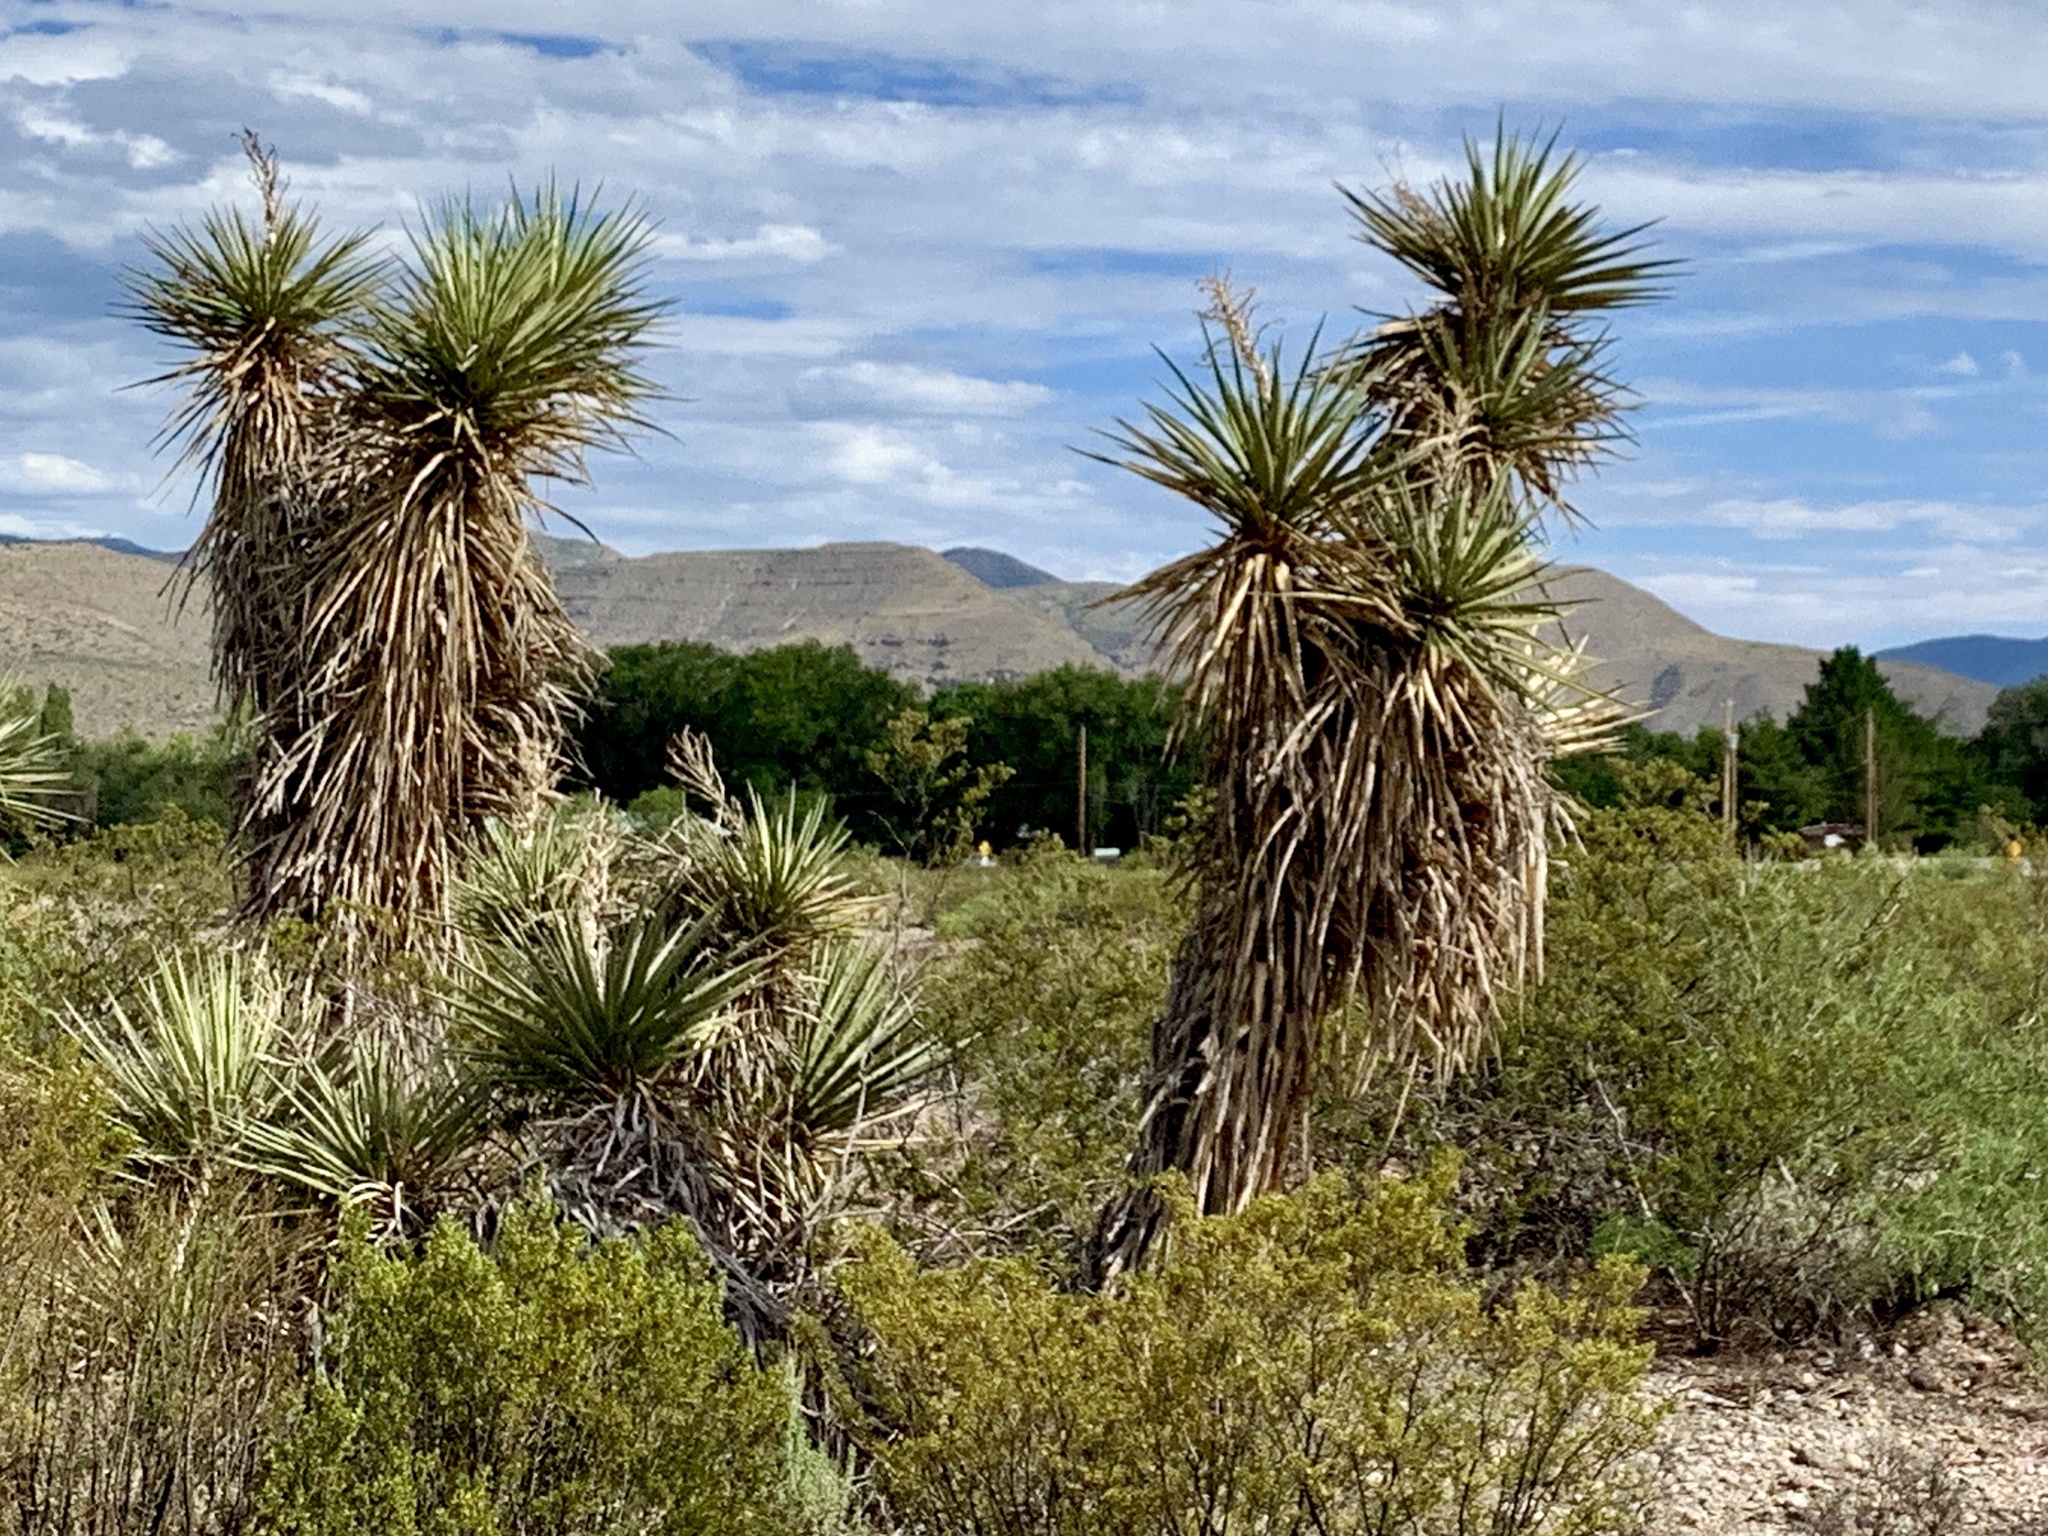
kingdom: Plantae
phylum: Tracheophyta
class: Liliopsida
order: Asparagales
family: Asparagaceae
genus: Yucca
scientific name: Yucca treculiana
